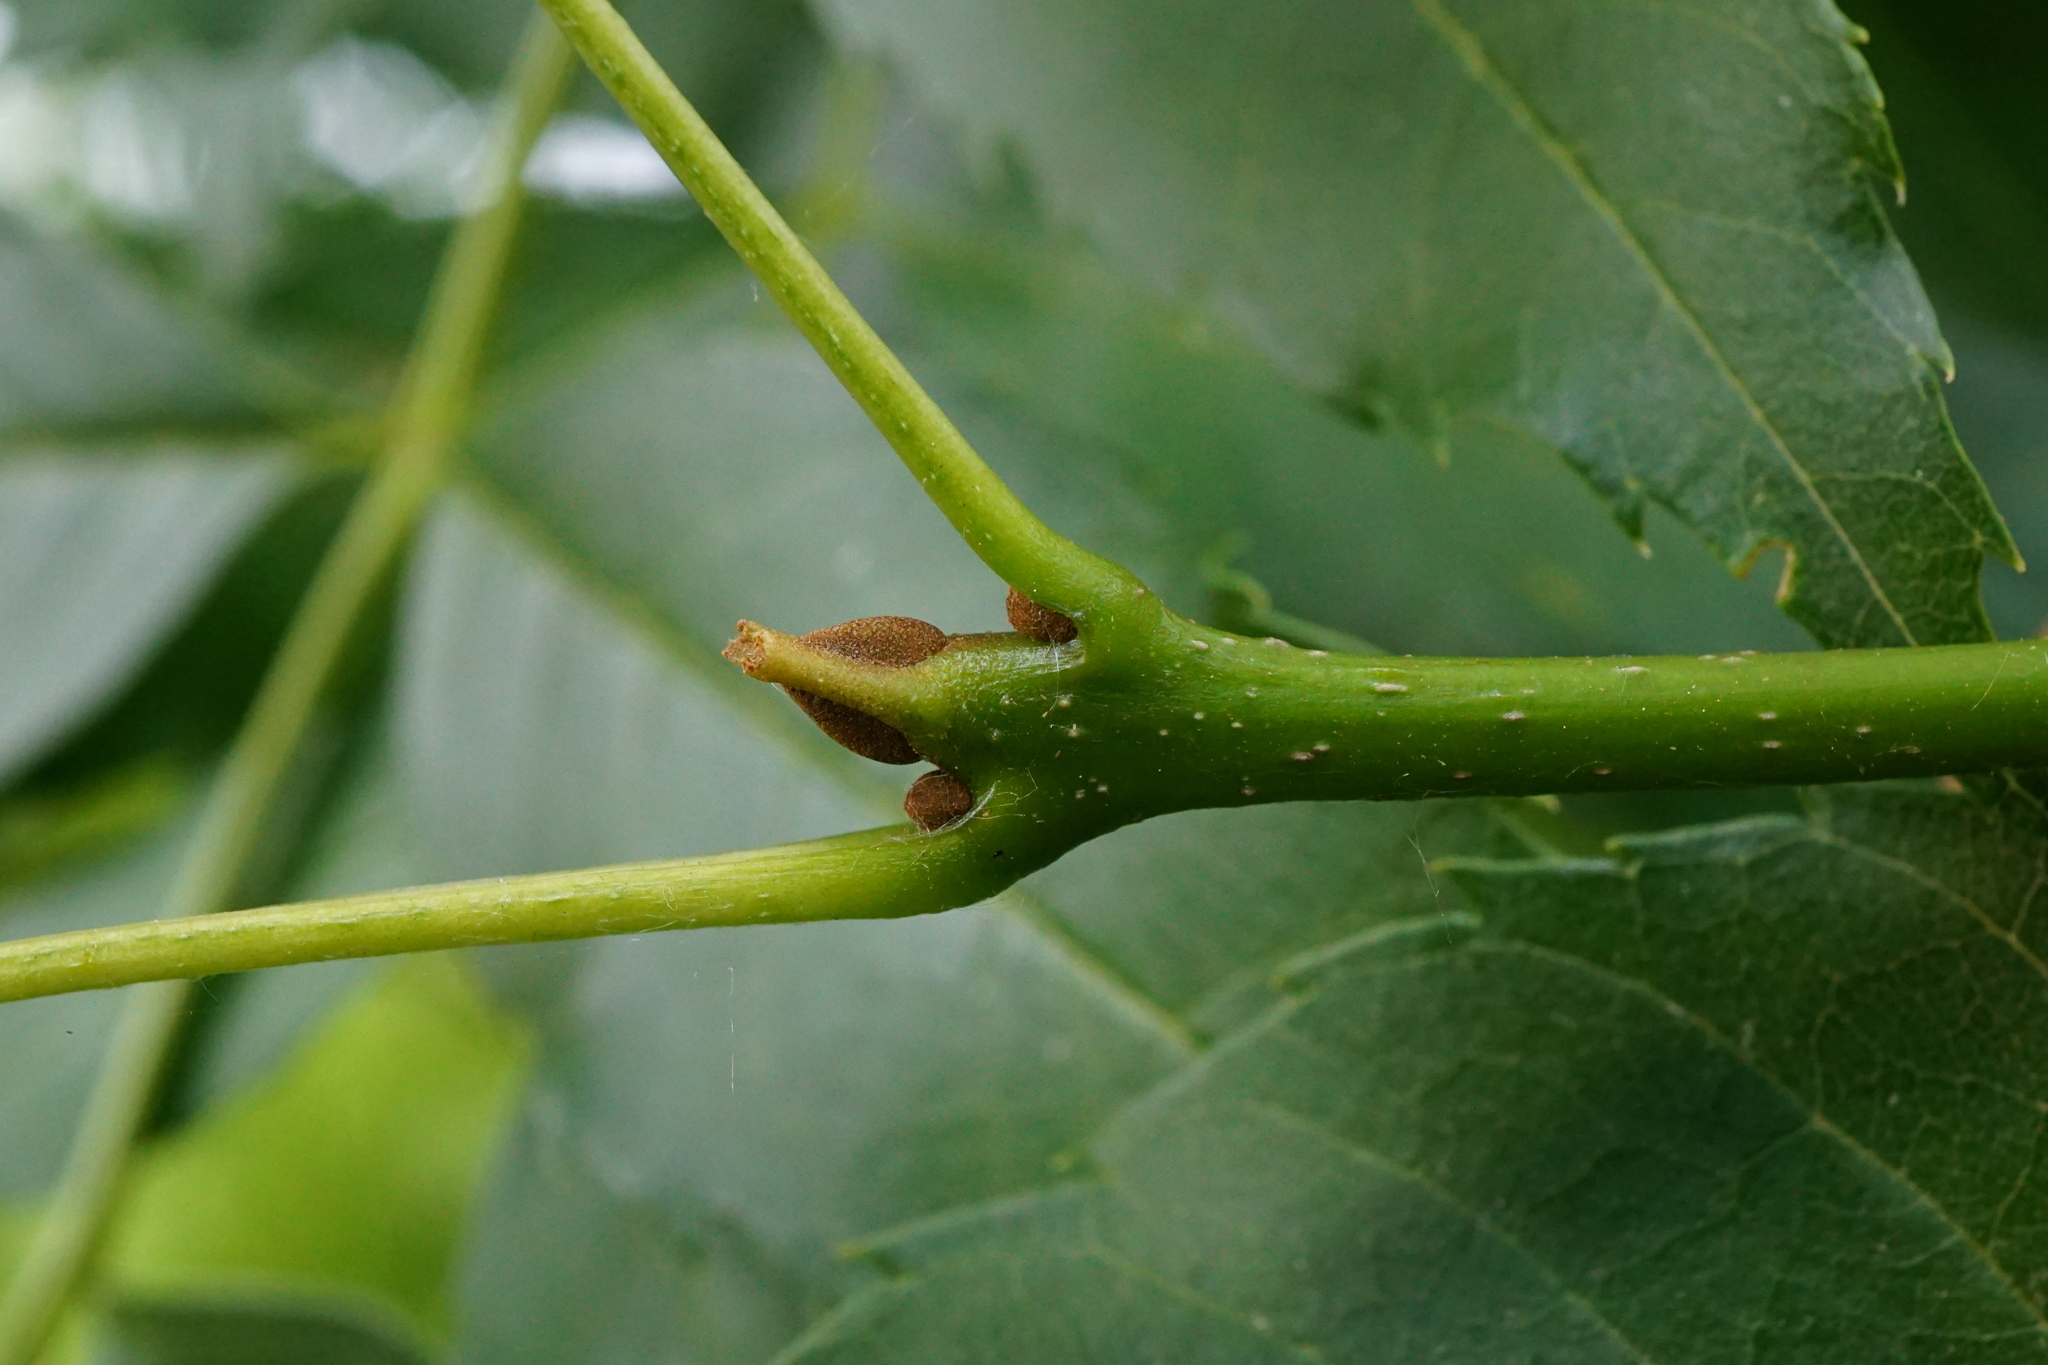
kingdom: Plantae
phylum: Tracheophyta
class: Magnoliopsida
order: Lamiales
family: Oleaceae
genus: Fraxinus
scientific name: Fraxinus angustifolia
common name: Narrow-leafed ash
